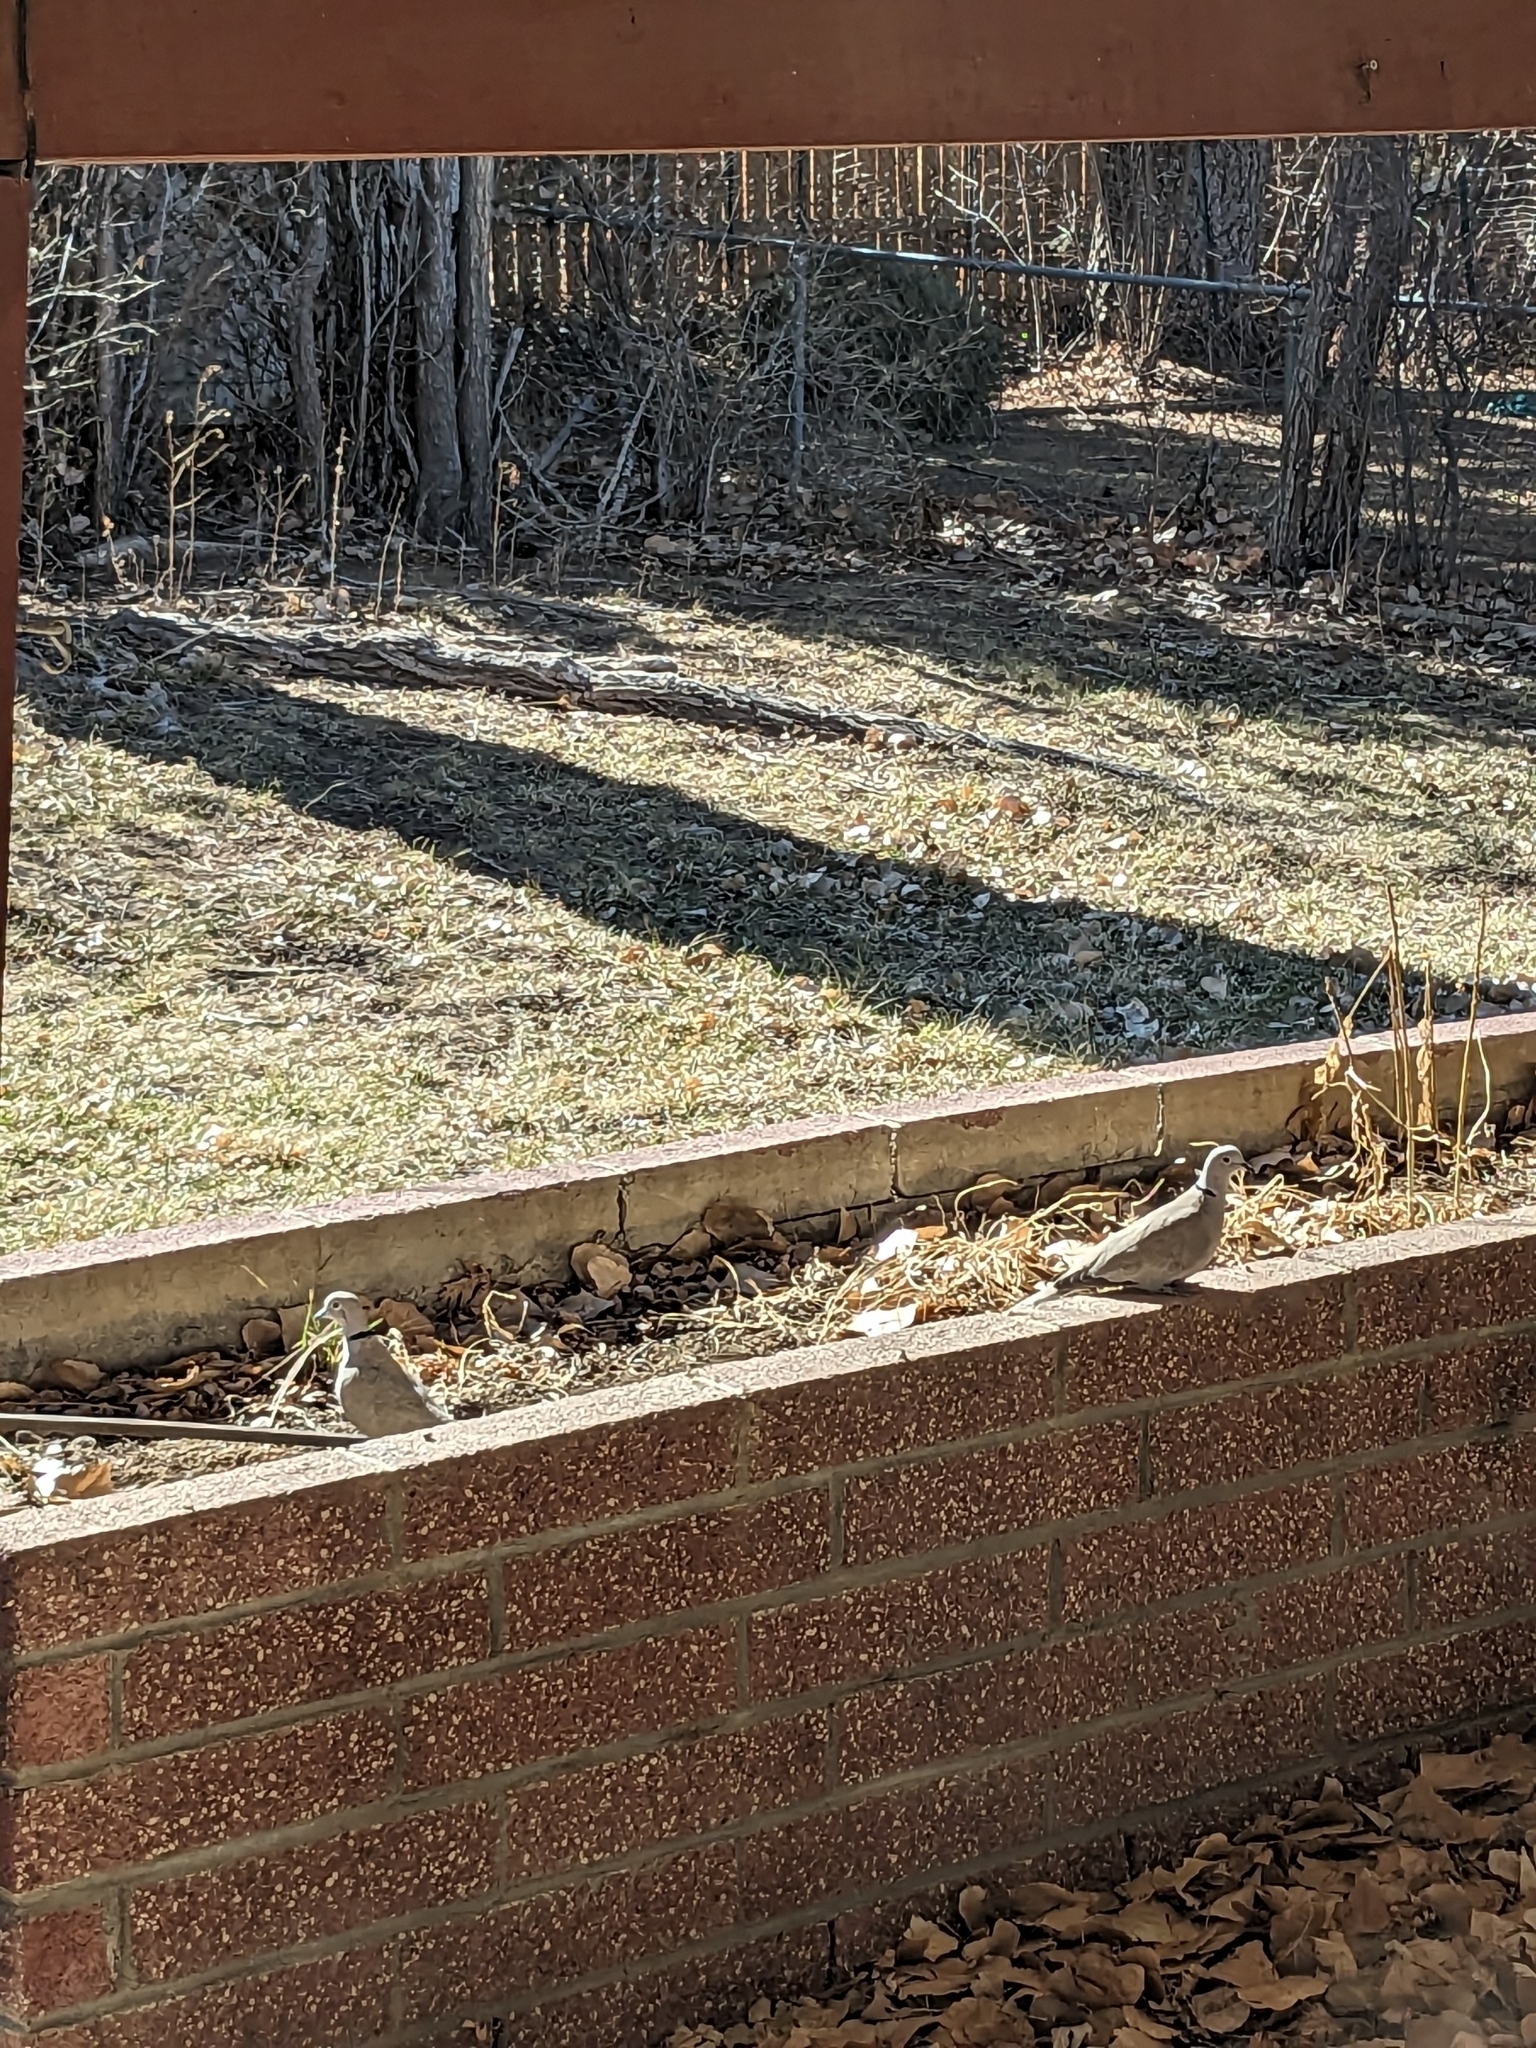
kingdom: Animalia
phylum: Chordata
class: Aves
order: Columbiformes
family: Columbidae
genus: Streptopelia
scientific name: Streptopelia decaocto
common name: Eurasian collared dove
